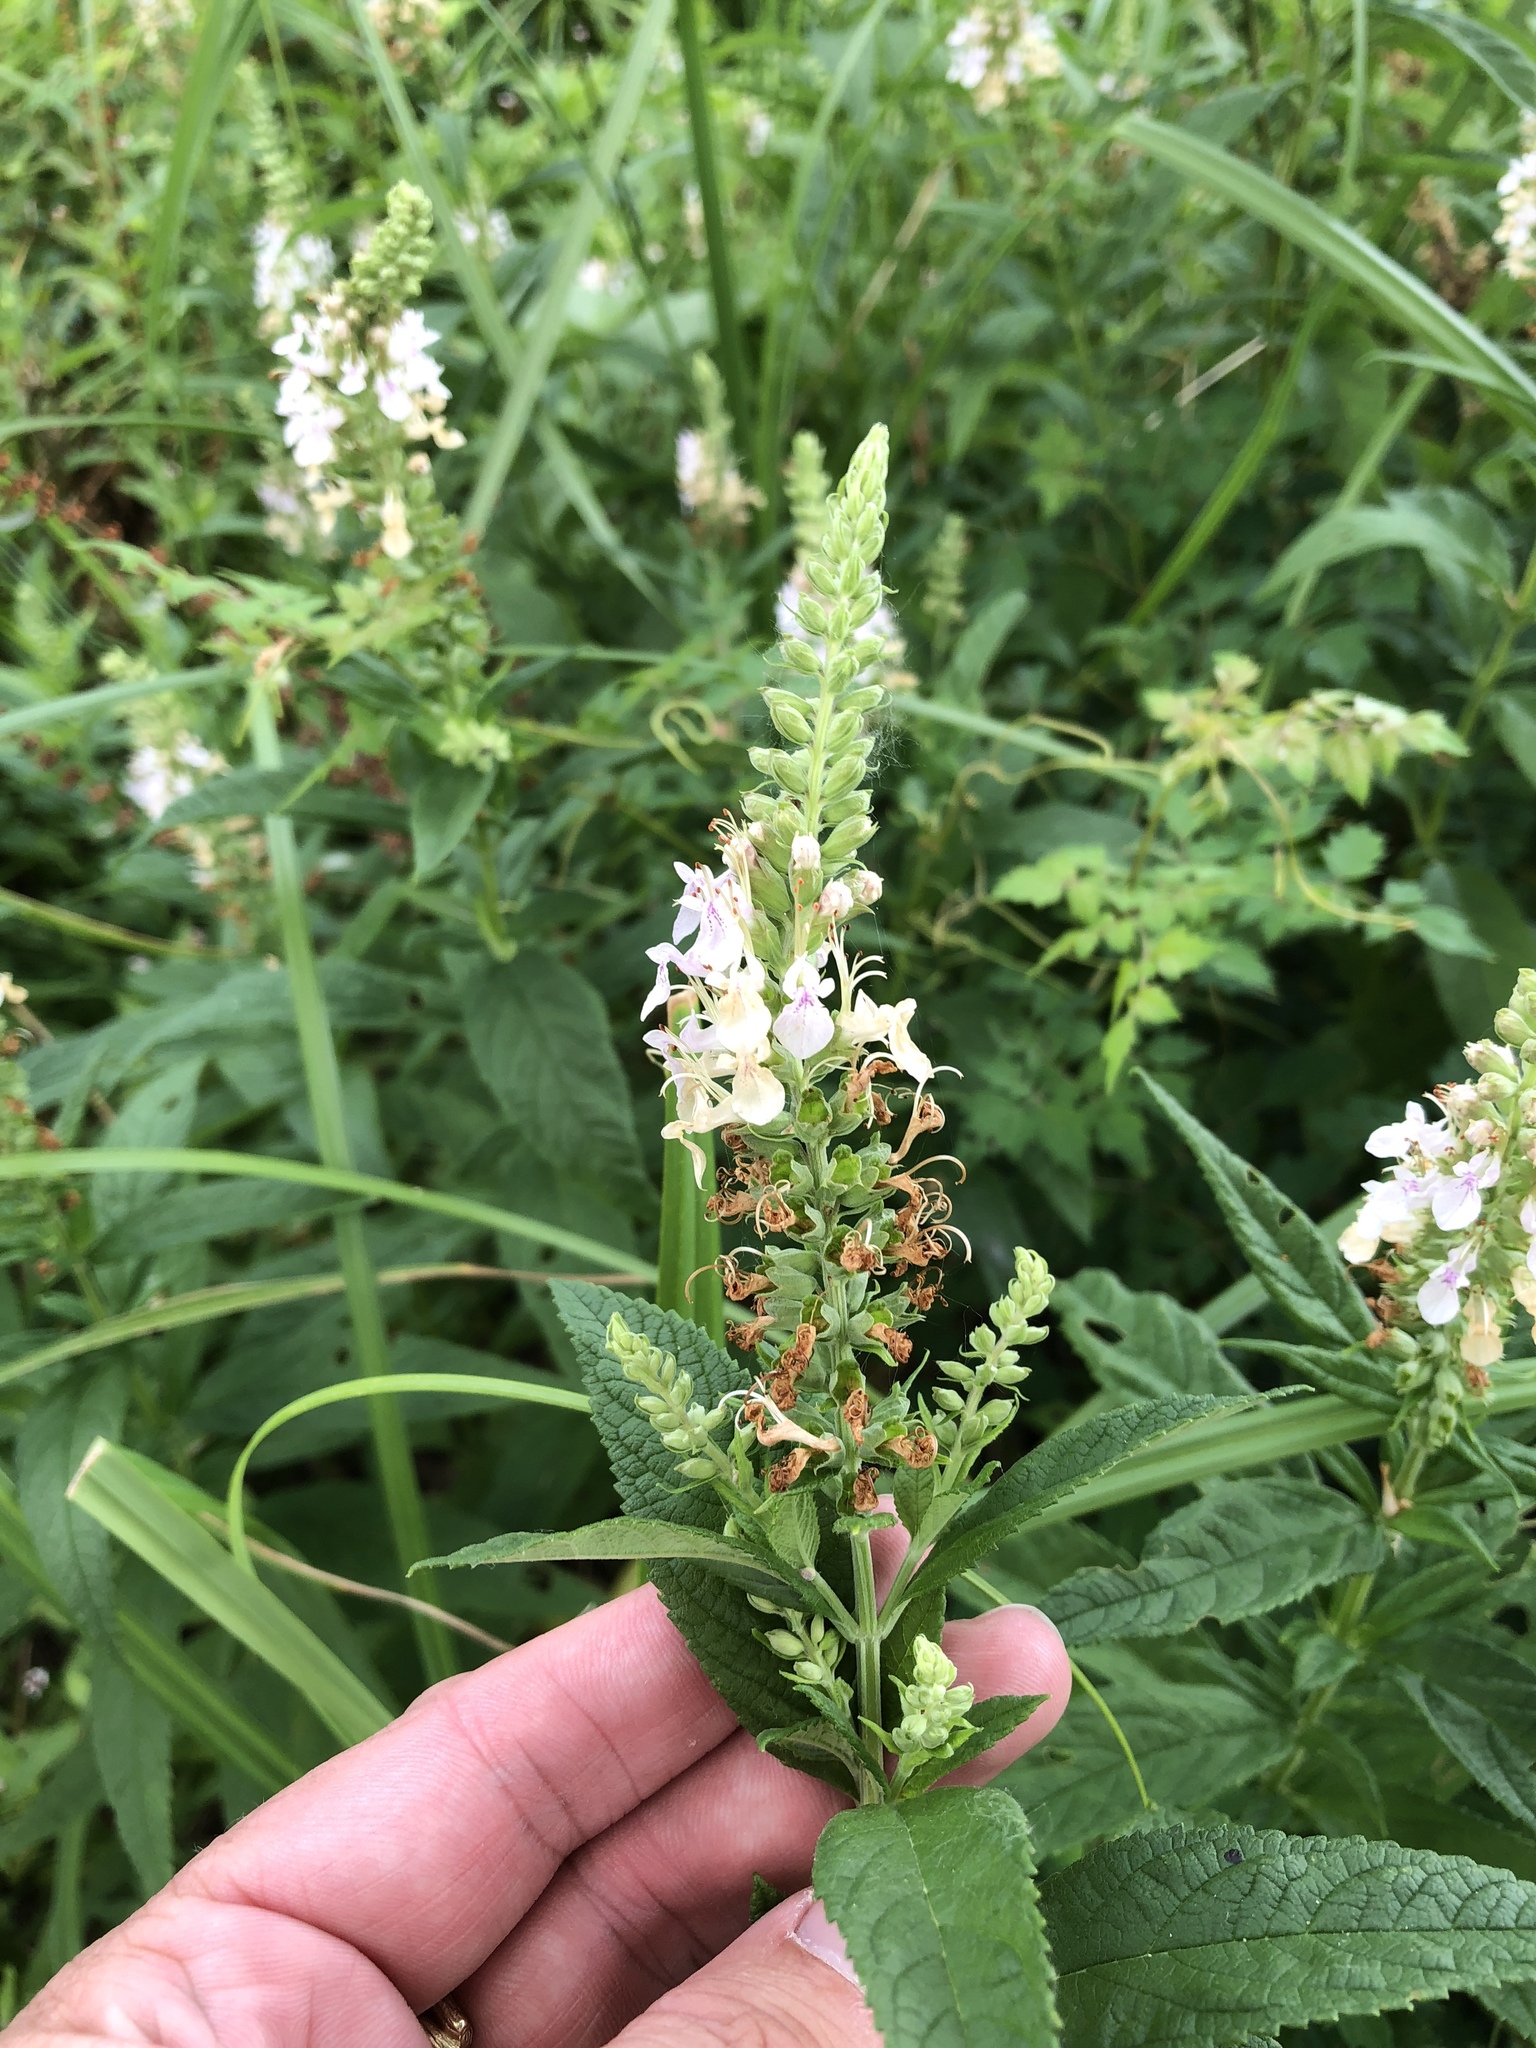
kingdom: Plantae
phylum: Tracheophyta
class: Magnoliopsida
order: Lamiales
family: Lamiaceae
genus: Teucrium
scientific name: Teucrium canadense
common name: American germander
